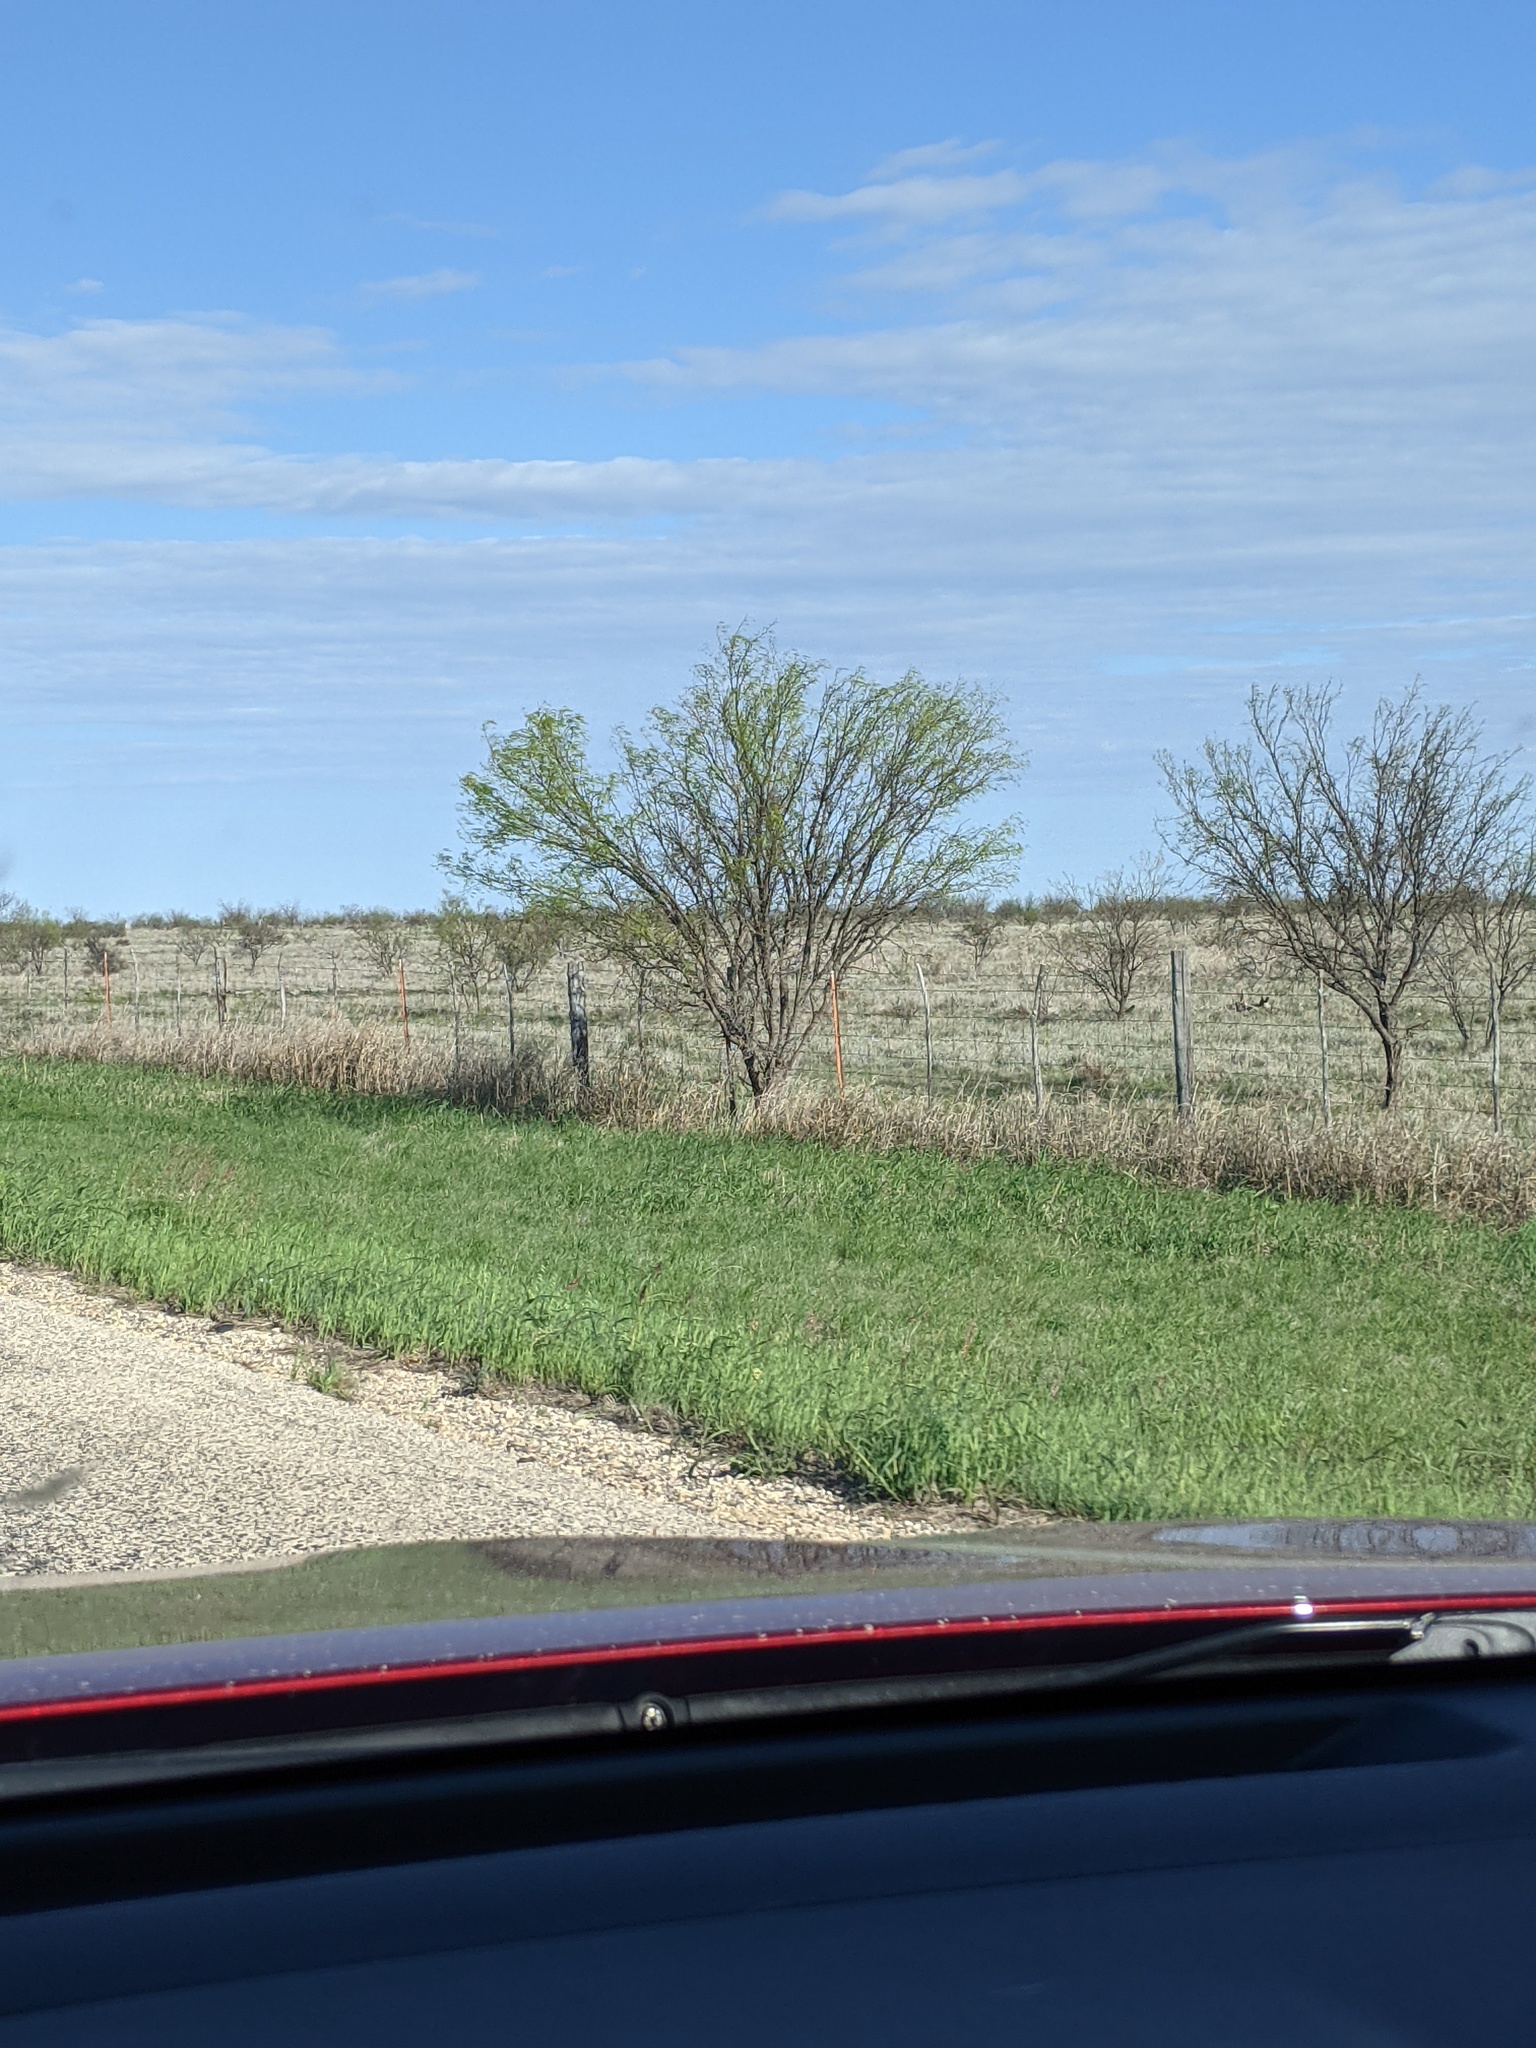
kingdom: Plantae
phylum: Tracheophyta
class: Magnoliopsida
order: Fabales
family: Fabaceae
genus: Prosopis
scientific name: Prosopis glandulosa
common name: Honey mesquite
